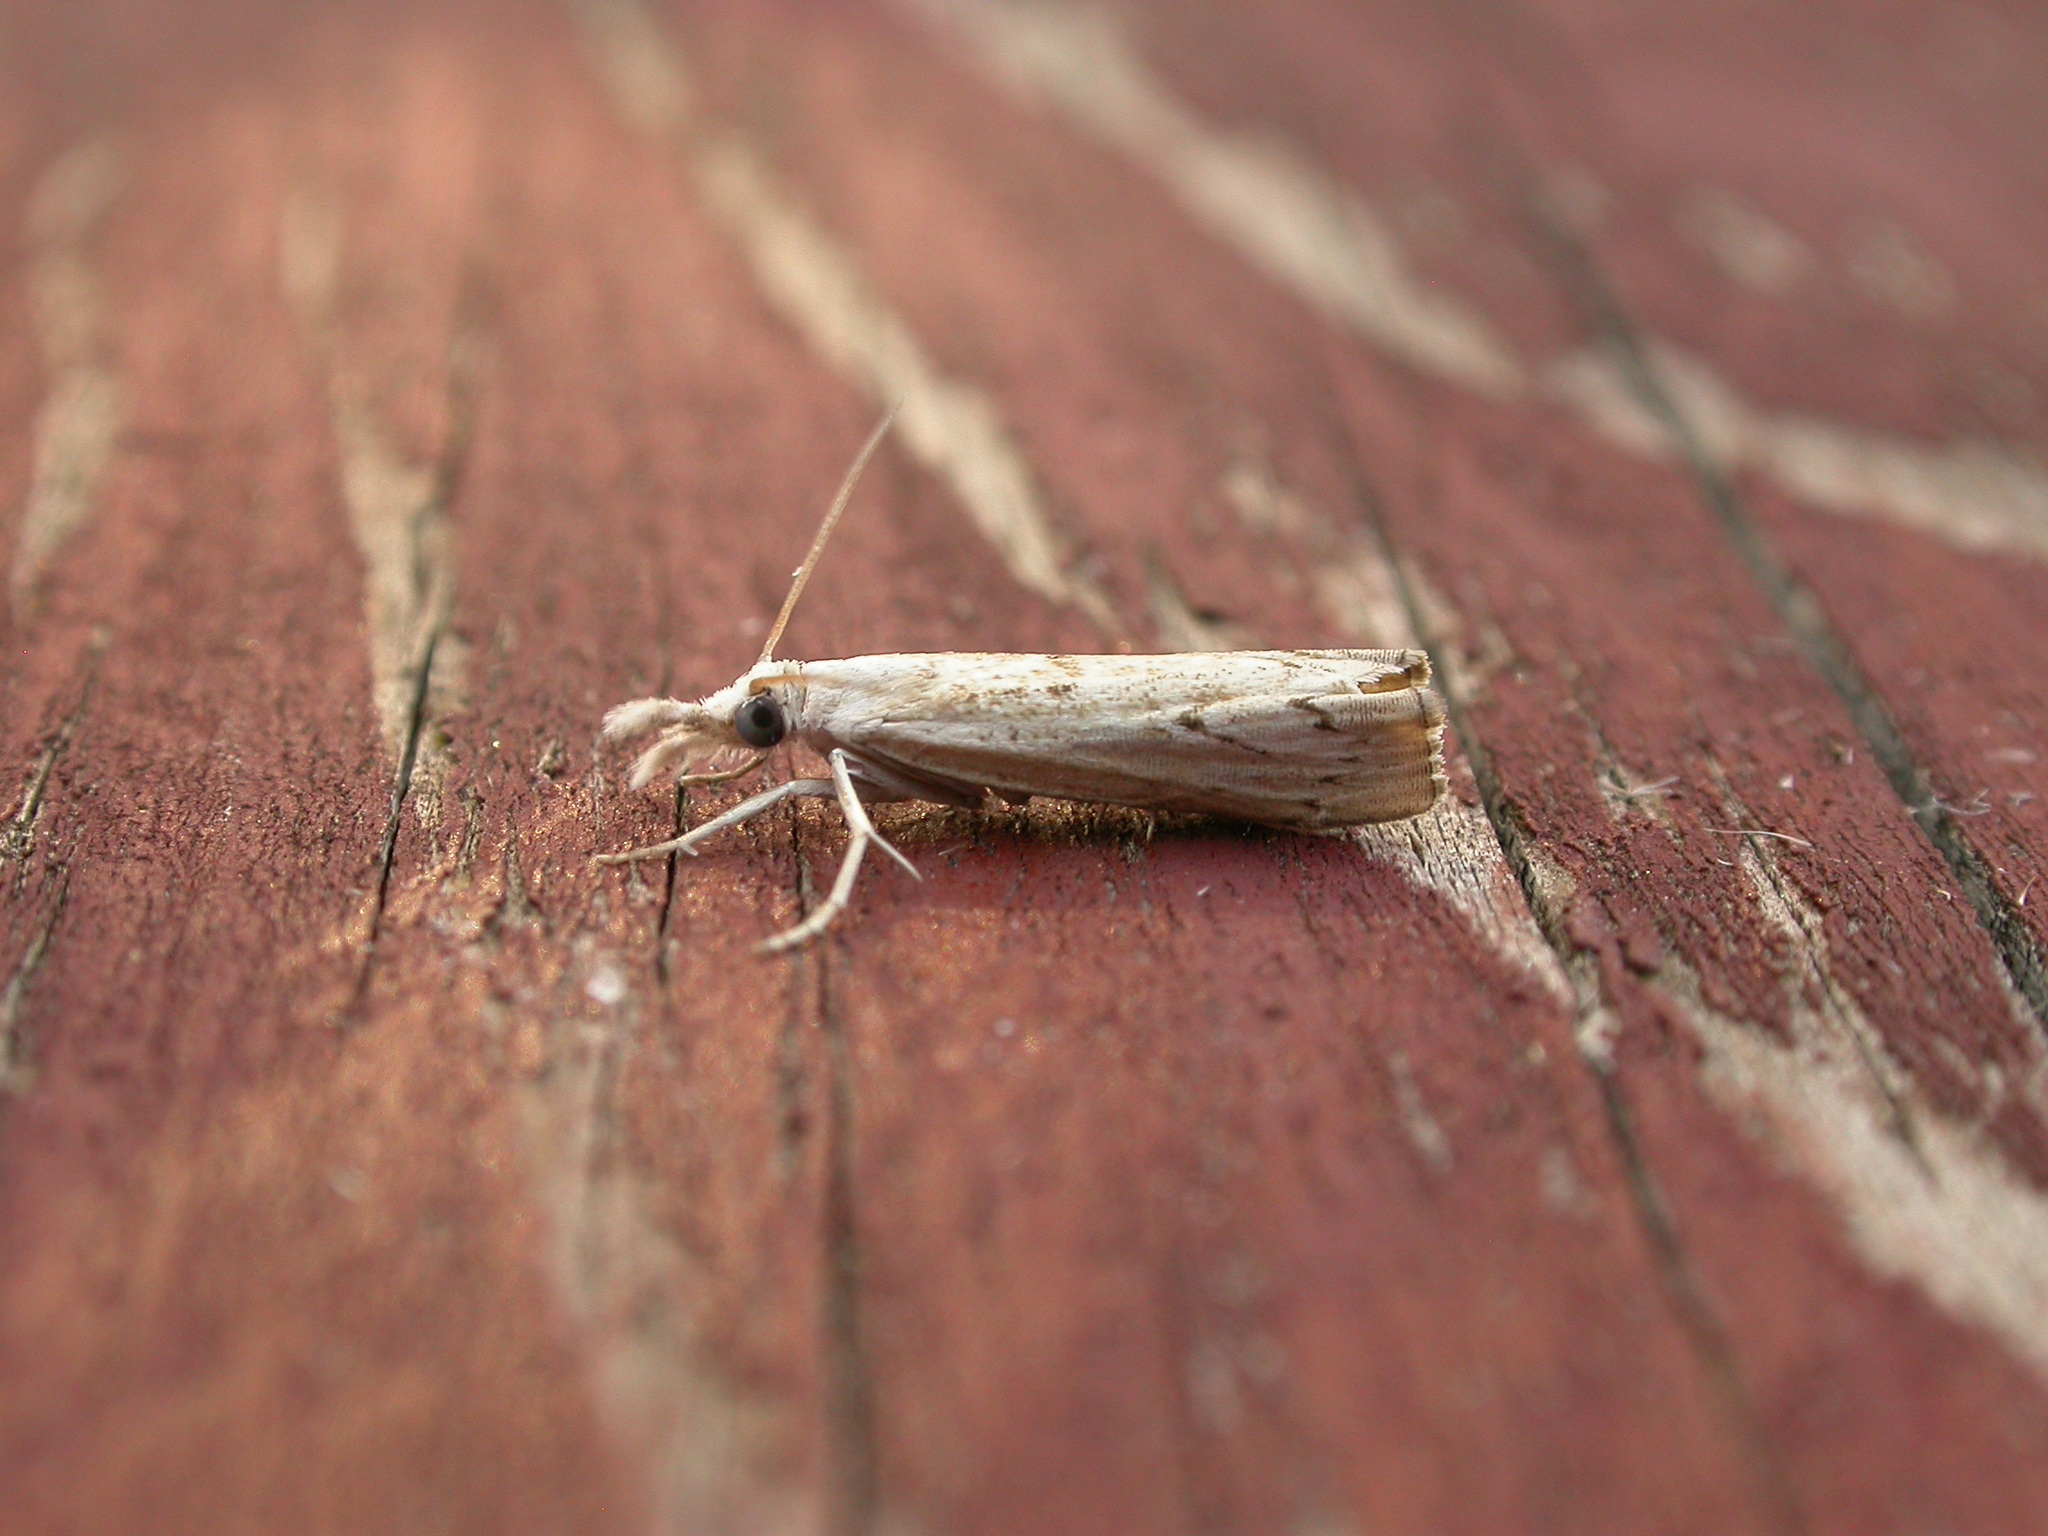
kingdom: Animalia
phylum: Arthropoda
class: Insecta
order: Lepidoptera
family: Crambidae
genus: Culladia
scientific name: Culladia cuneiferellus
